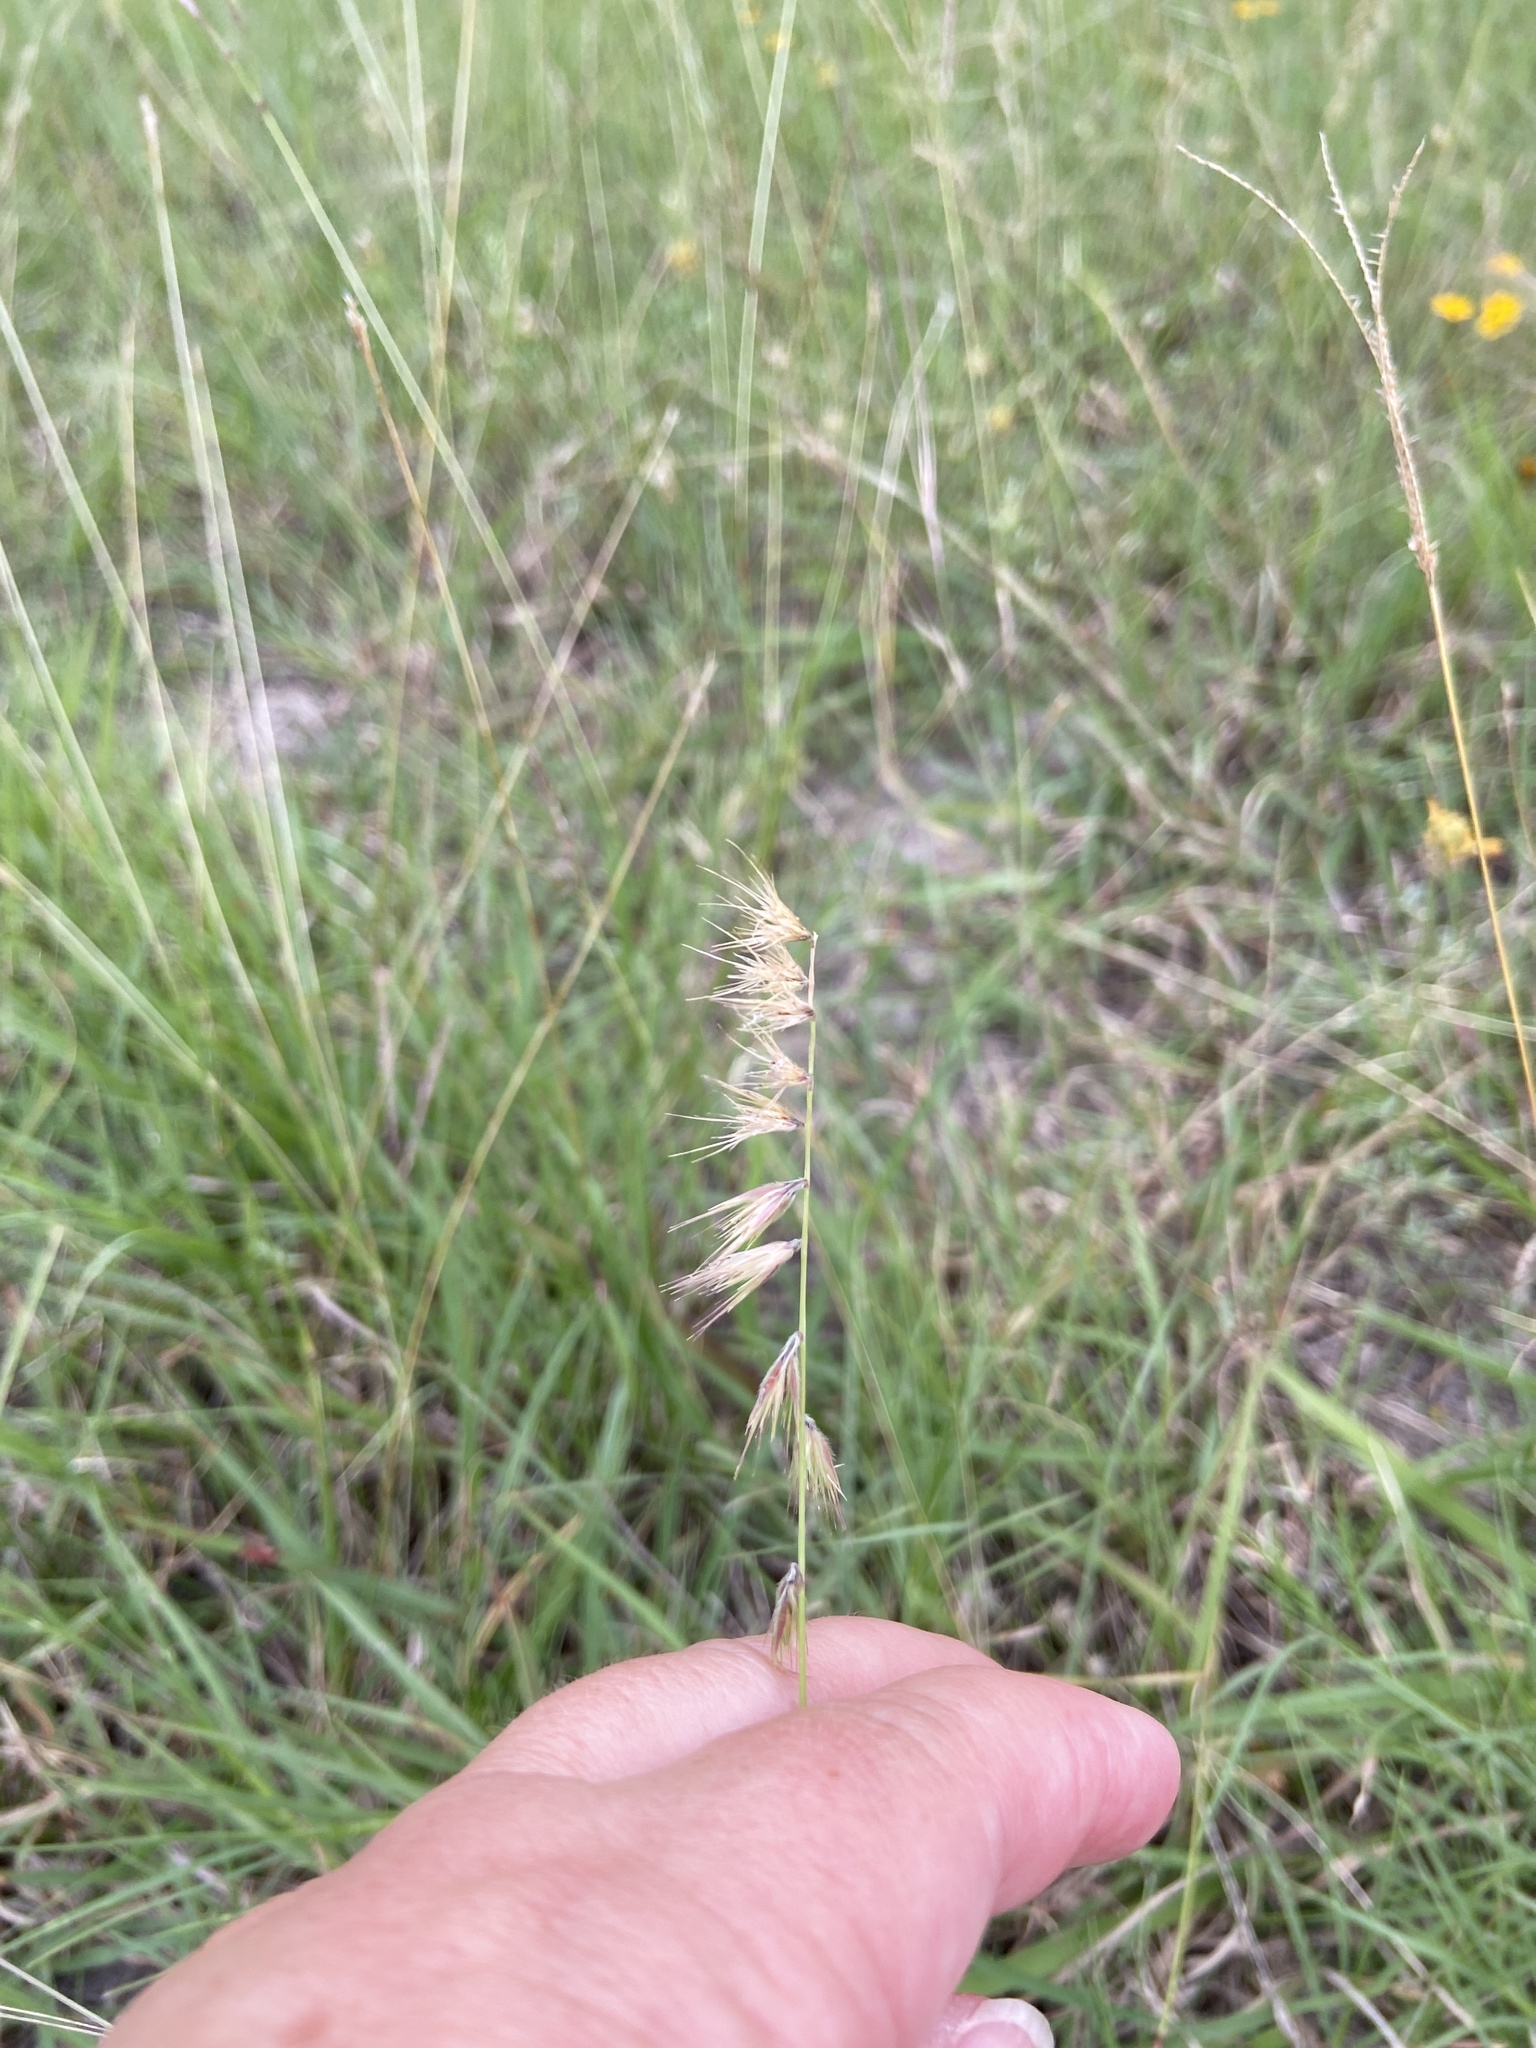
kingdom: Plantae
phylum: Tracheophyta
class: Liliopsida
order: Poales
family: Poaceae
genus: Bouteloua
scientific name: Bouteloua rigidiseta
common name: Texas grama
